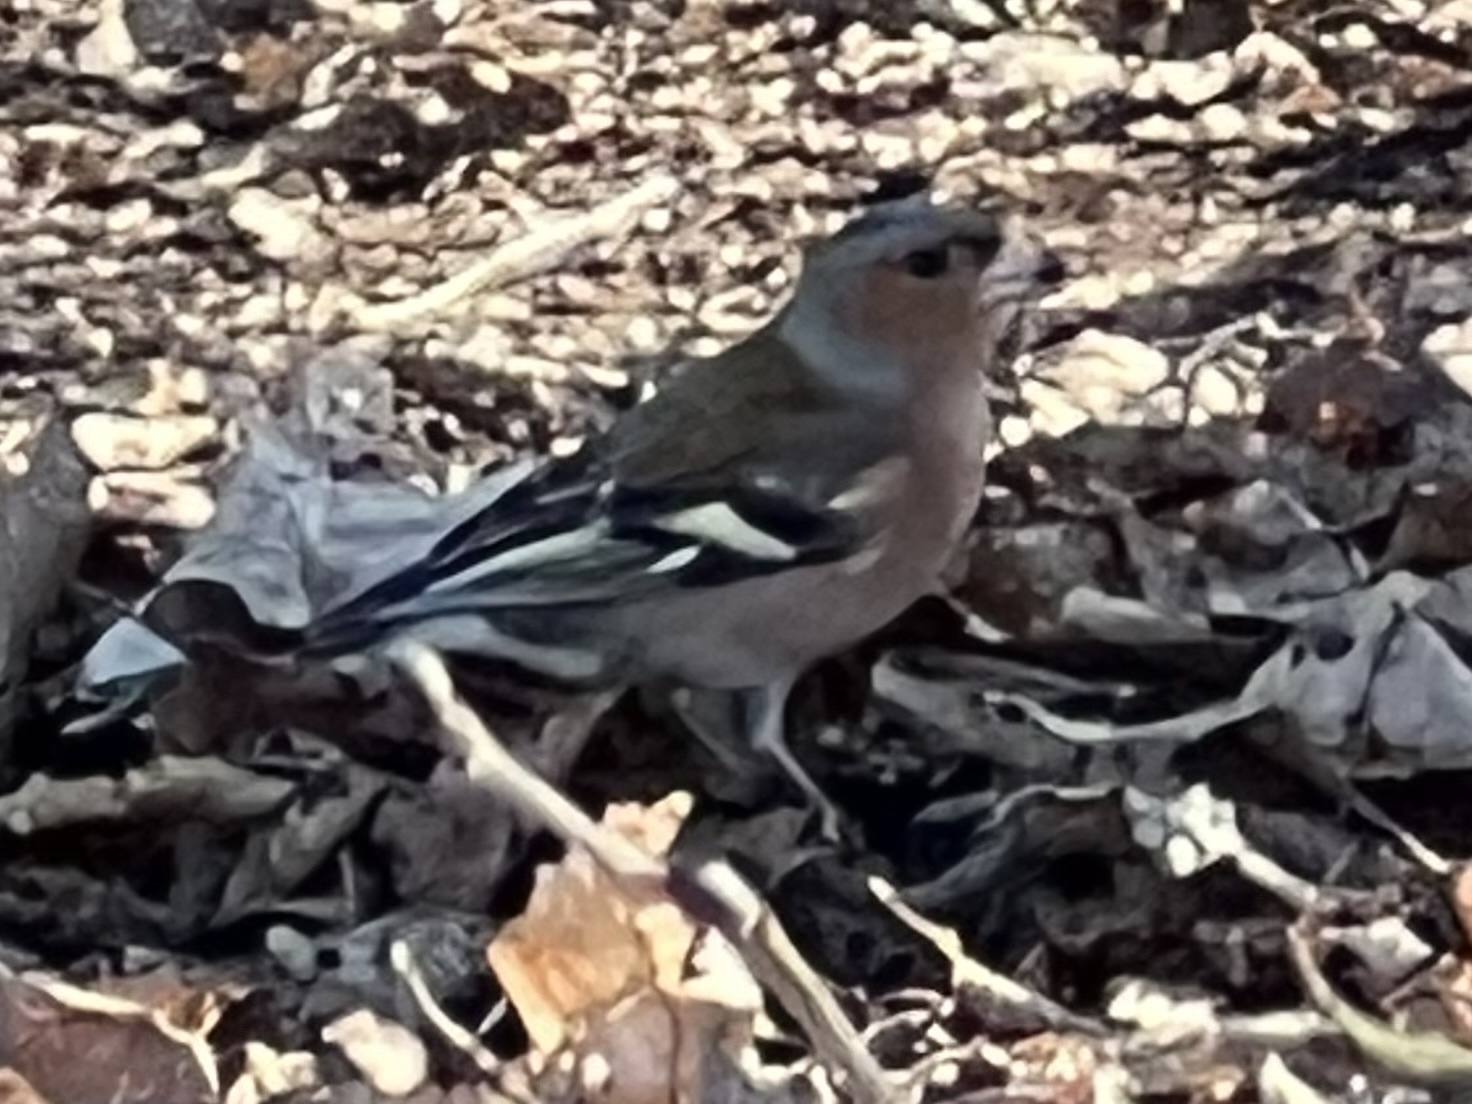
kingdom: Animalia
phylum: Chordata
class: Aves
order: Passeriformes
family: Fringillidae
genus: Fringilla
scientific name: Fringilla coelebs
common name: Common chaffinch
